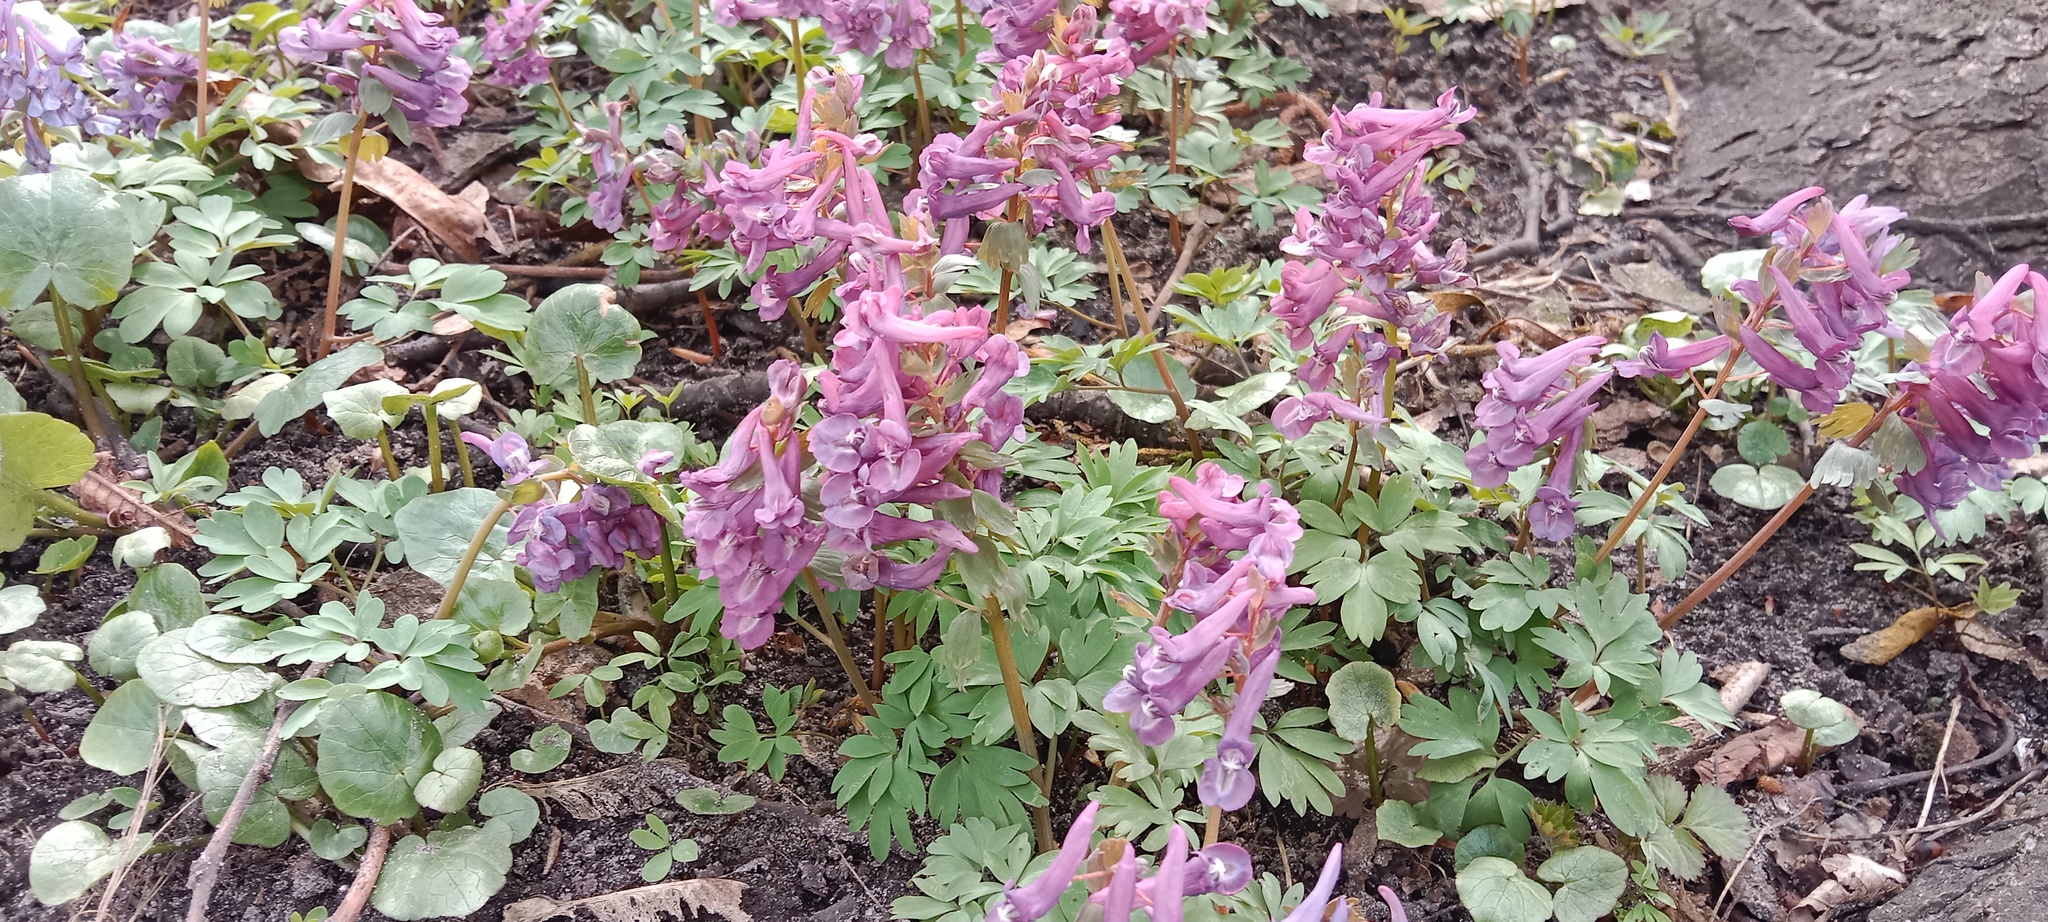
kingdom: Plantae
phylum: Tracheophyta
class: Magnoliopsida
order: Ranunculales
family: Papaveraceae
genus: Corydalis
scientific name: Corydalis solida
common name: Bird-in-a-bush
